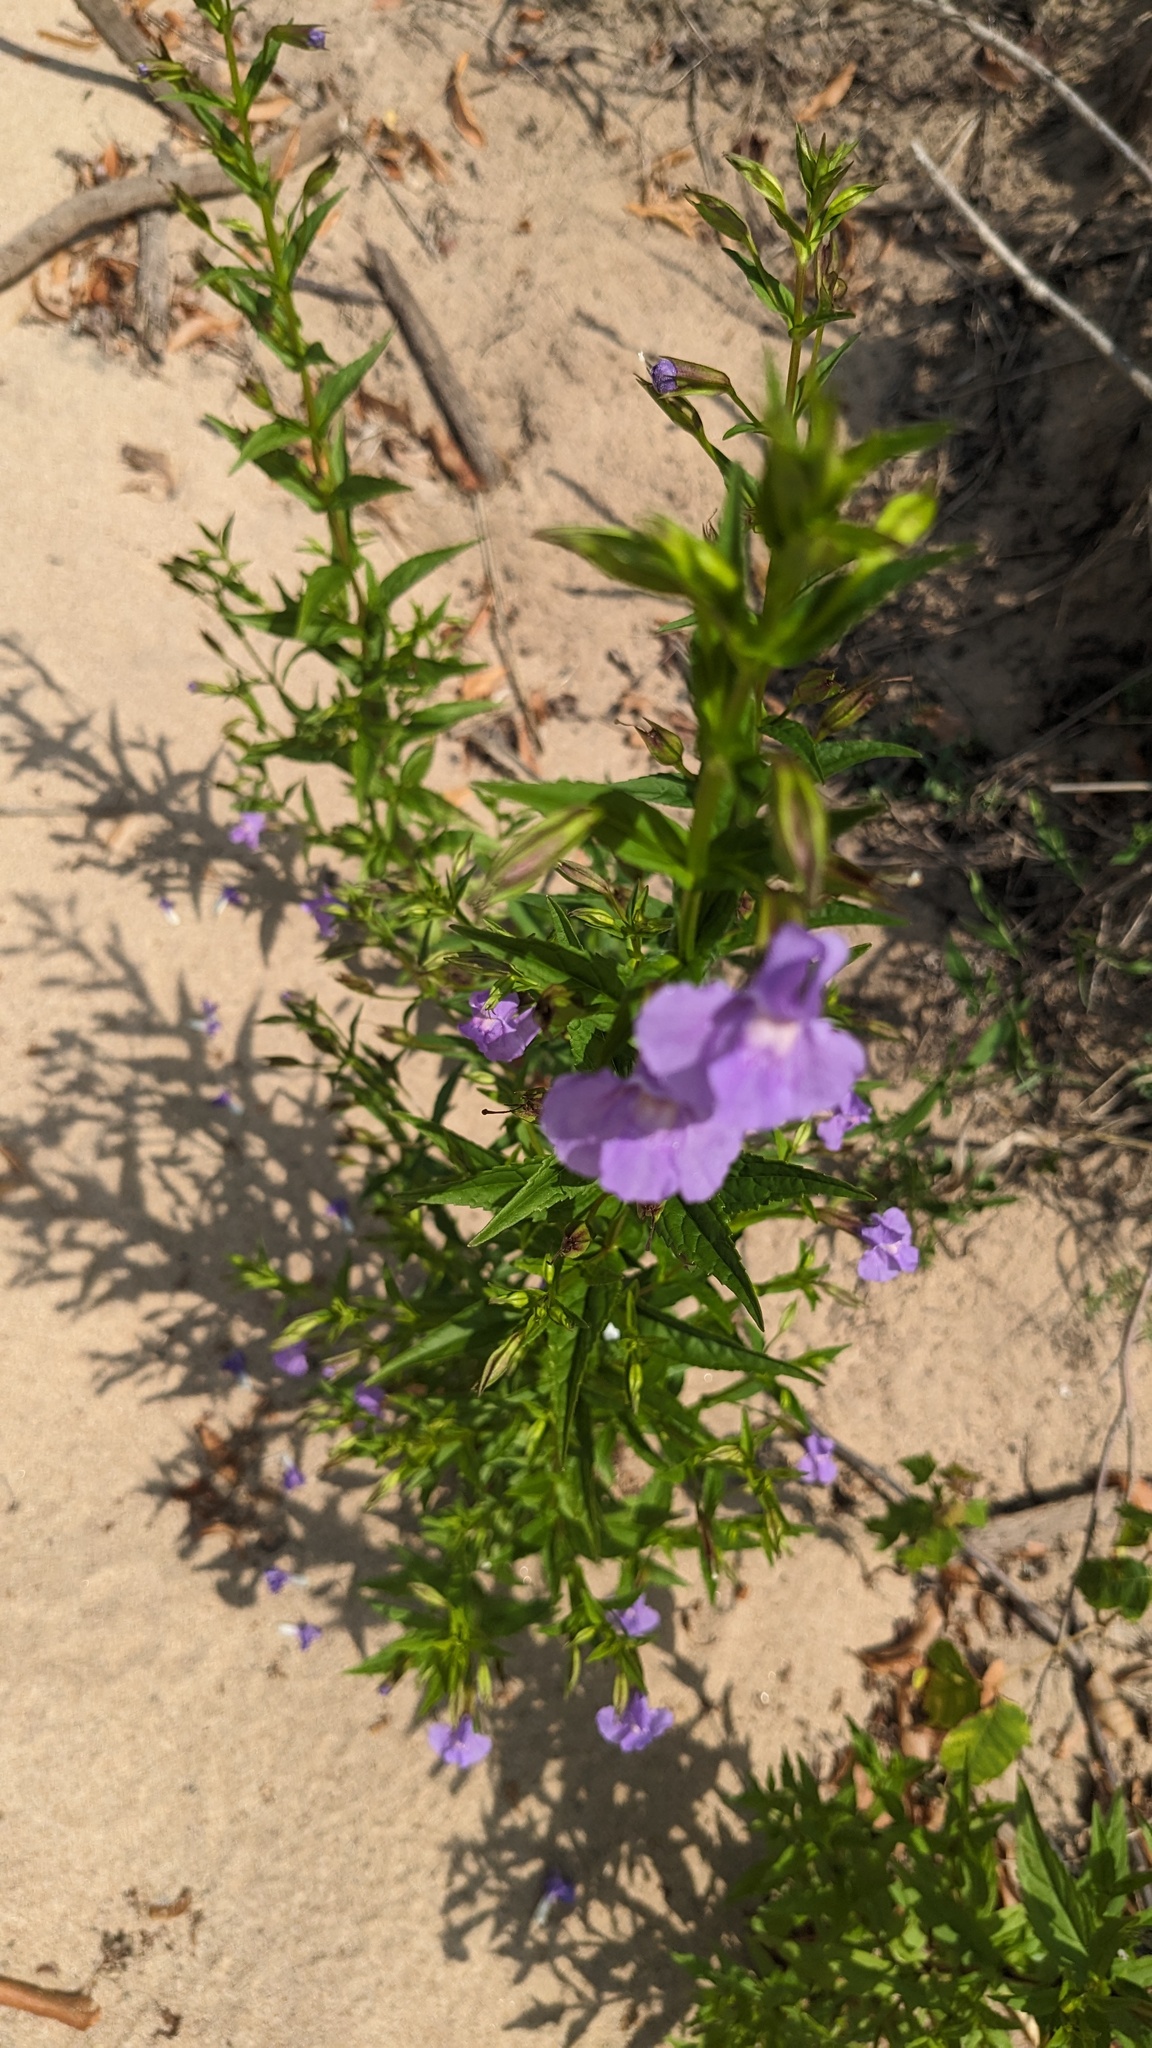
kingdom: Plantae
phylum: Tracheophyta
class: Magnoliopsida
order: Lamiales
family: Phrymaceae
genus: Mimulus
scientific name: Mimulus ringens
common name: Allegheny monkeyflower
